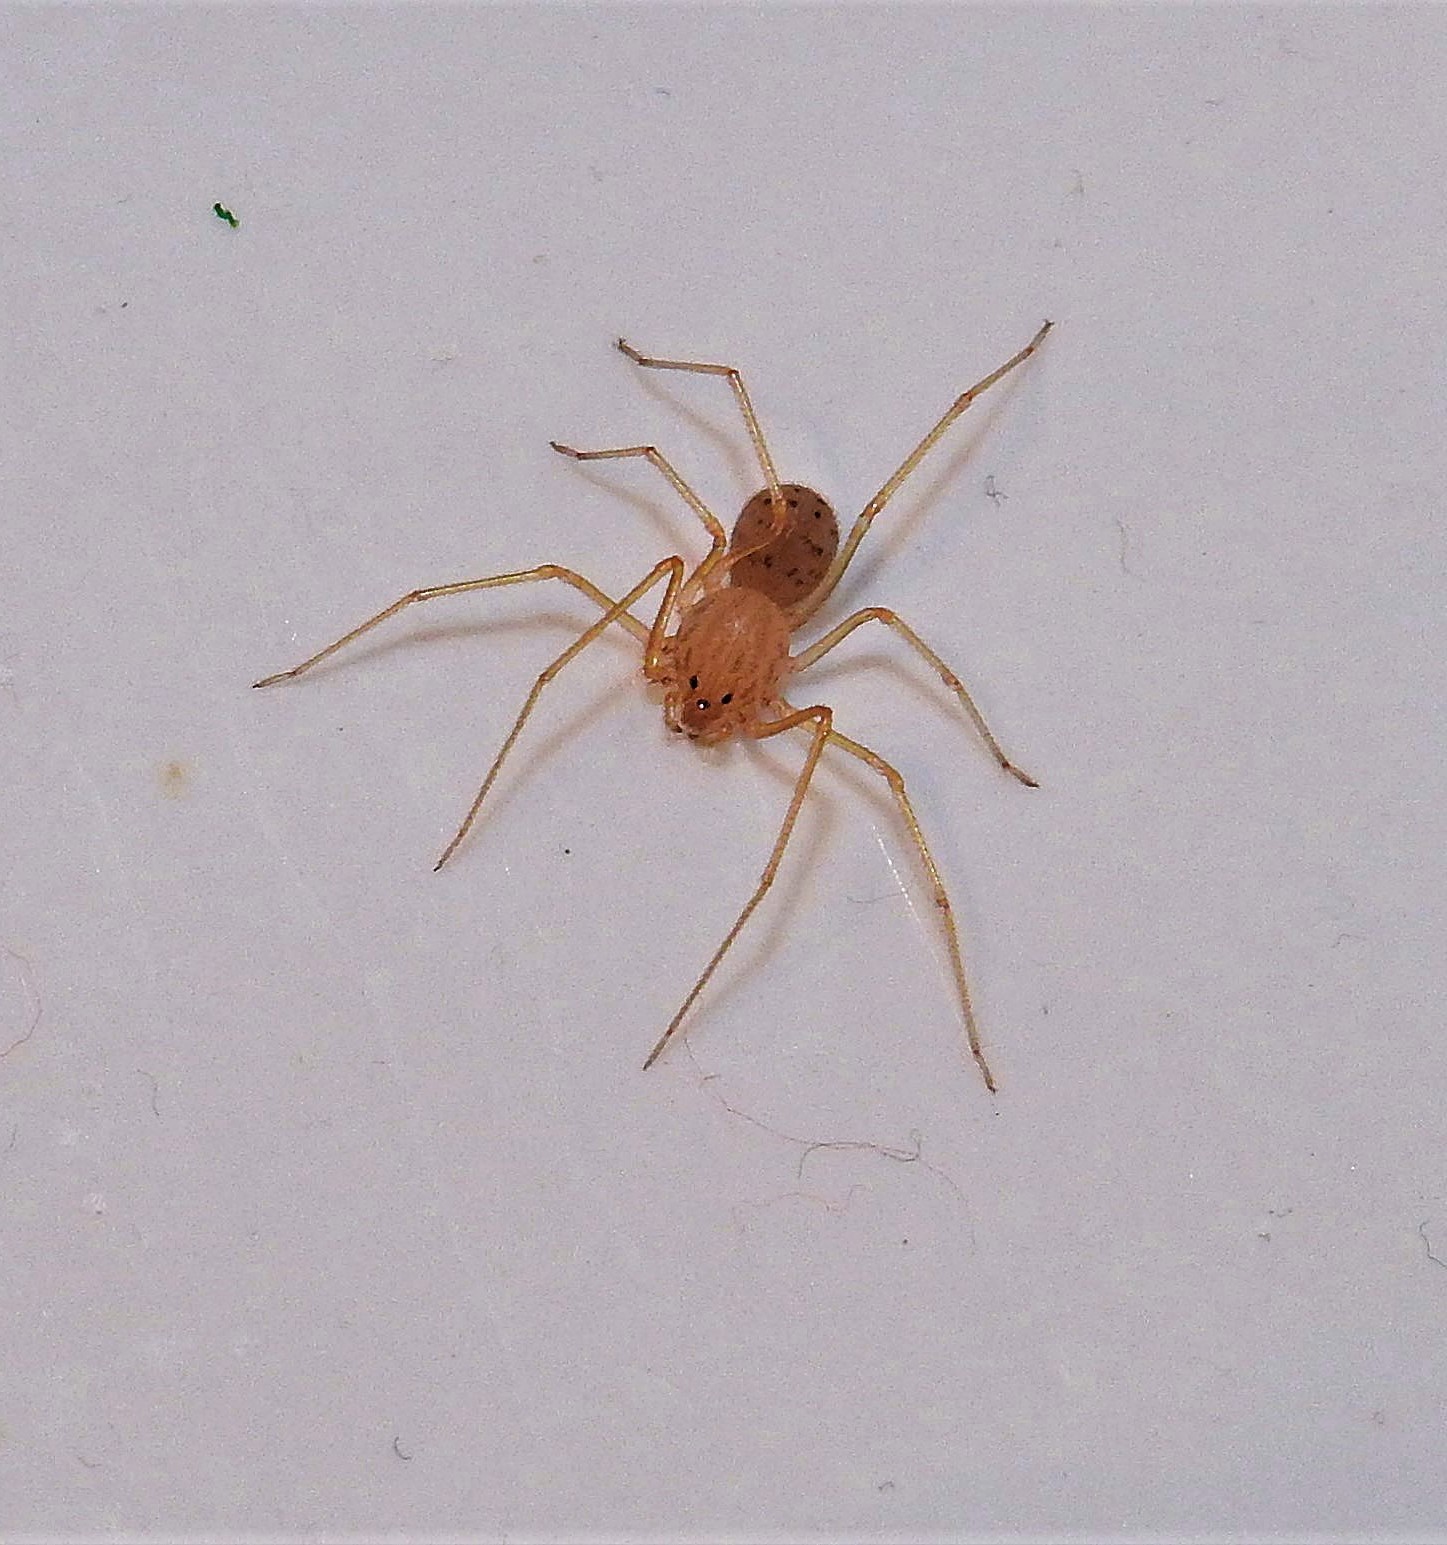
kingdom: Animalia
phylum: Arthropoda
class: Arachnida
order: Araneae
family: Scytodidae
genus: Scytodes
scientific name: Scytodes univittata
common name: Spitting spider
